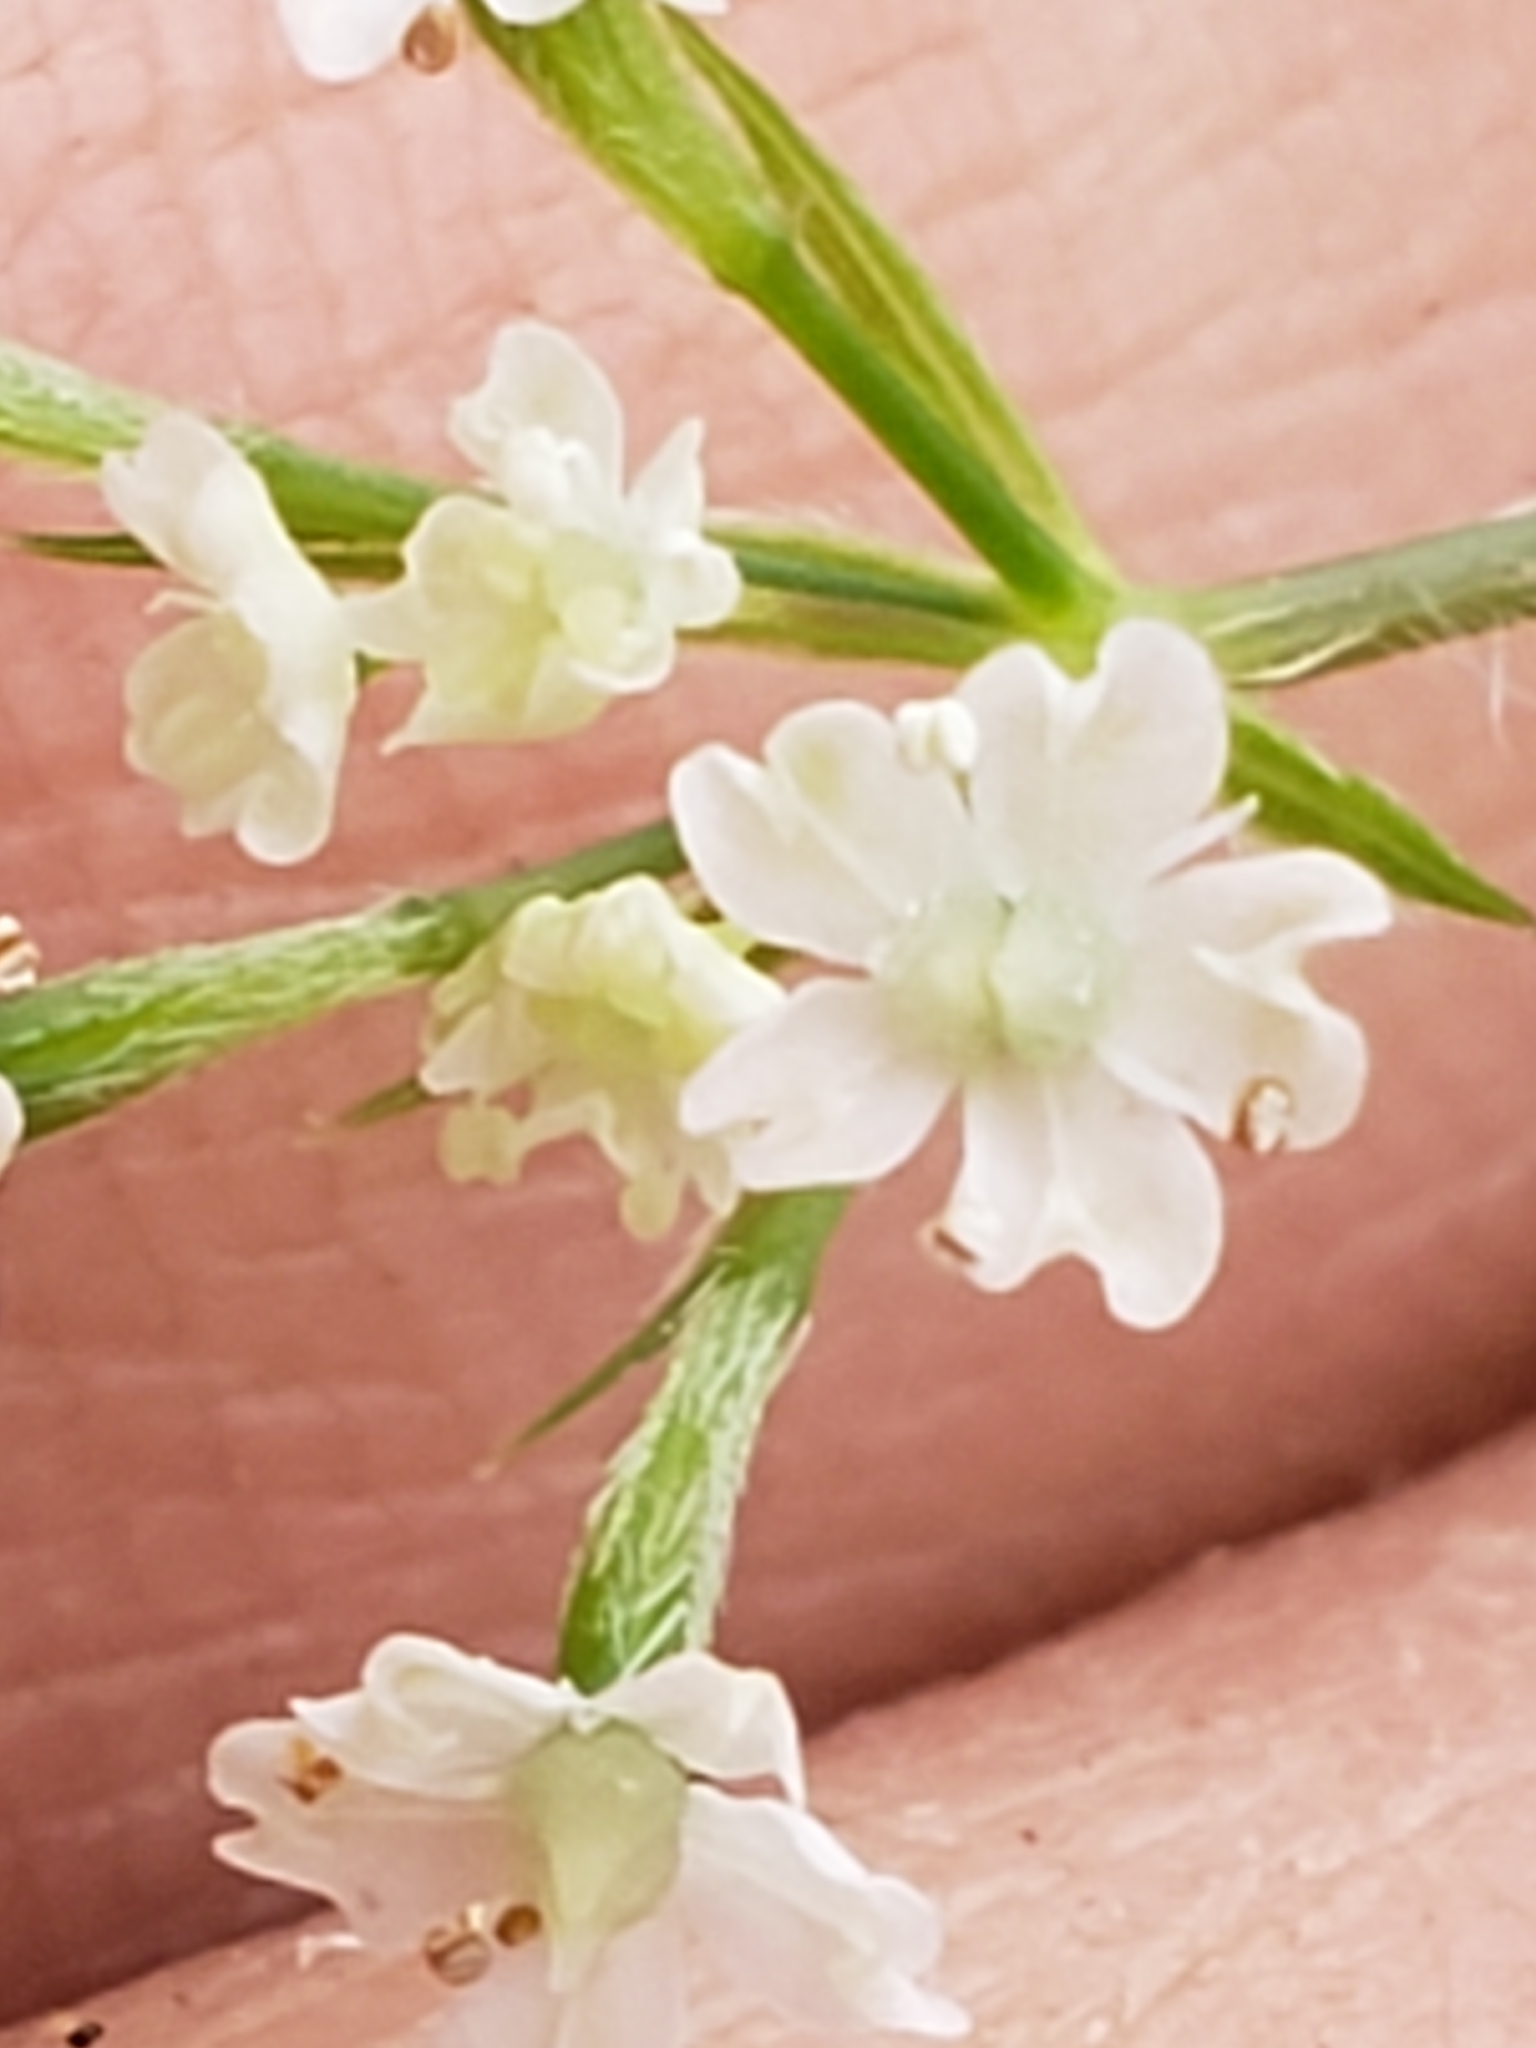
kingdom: Plantae
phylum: Tracheophyta
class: Magnoliopsida
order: Apiales
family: Apiaceae
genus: Osmorhiza
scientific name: Osmorhiza claytonii
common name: Hairy sweet cicely
